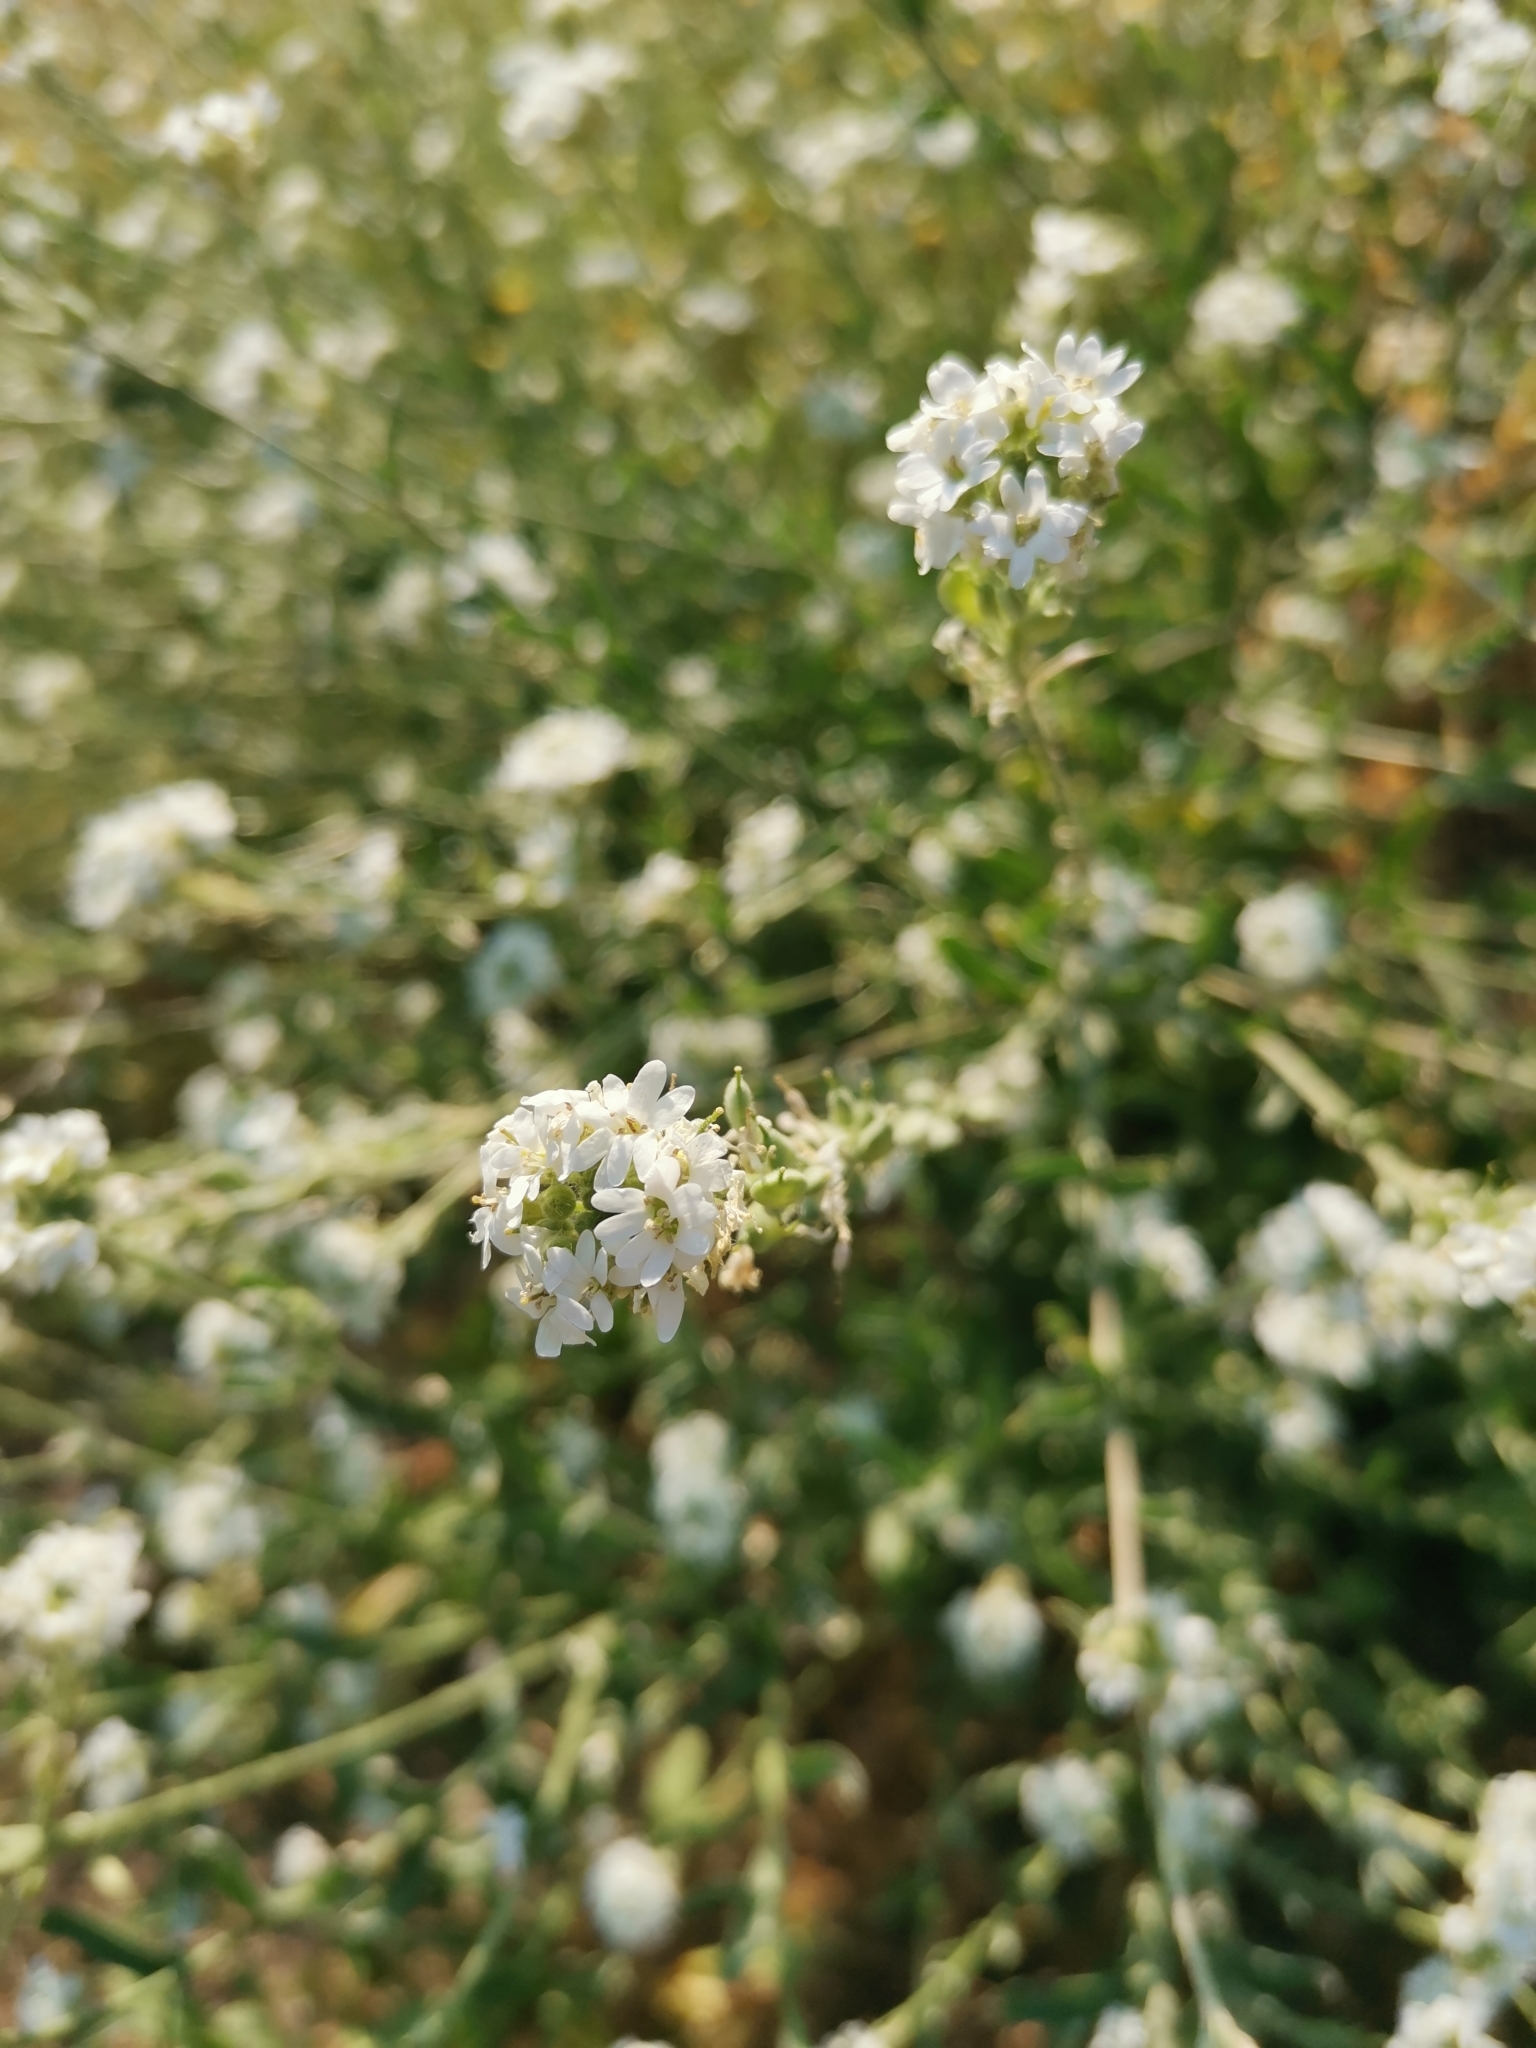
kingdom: Plantae
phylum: Tracheophyta
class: Magnoliopsida
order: Brassicales
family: Brassicaceae
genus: Berteroa
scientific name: Berteroa incana
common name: Hoary alison
